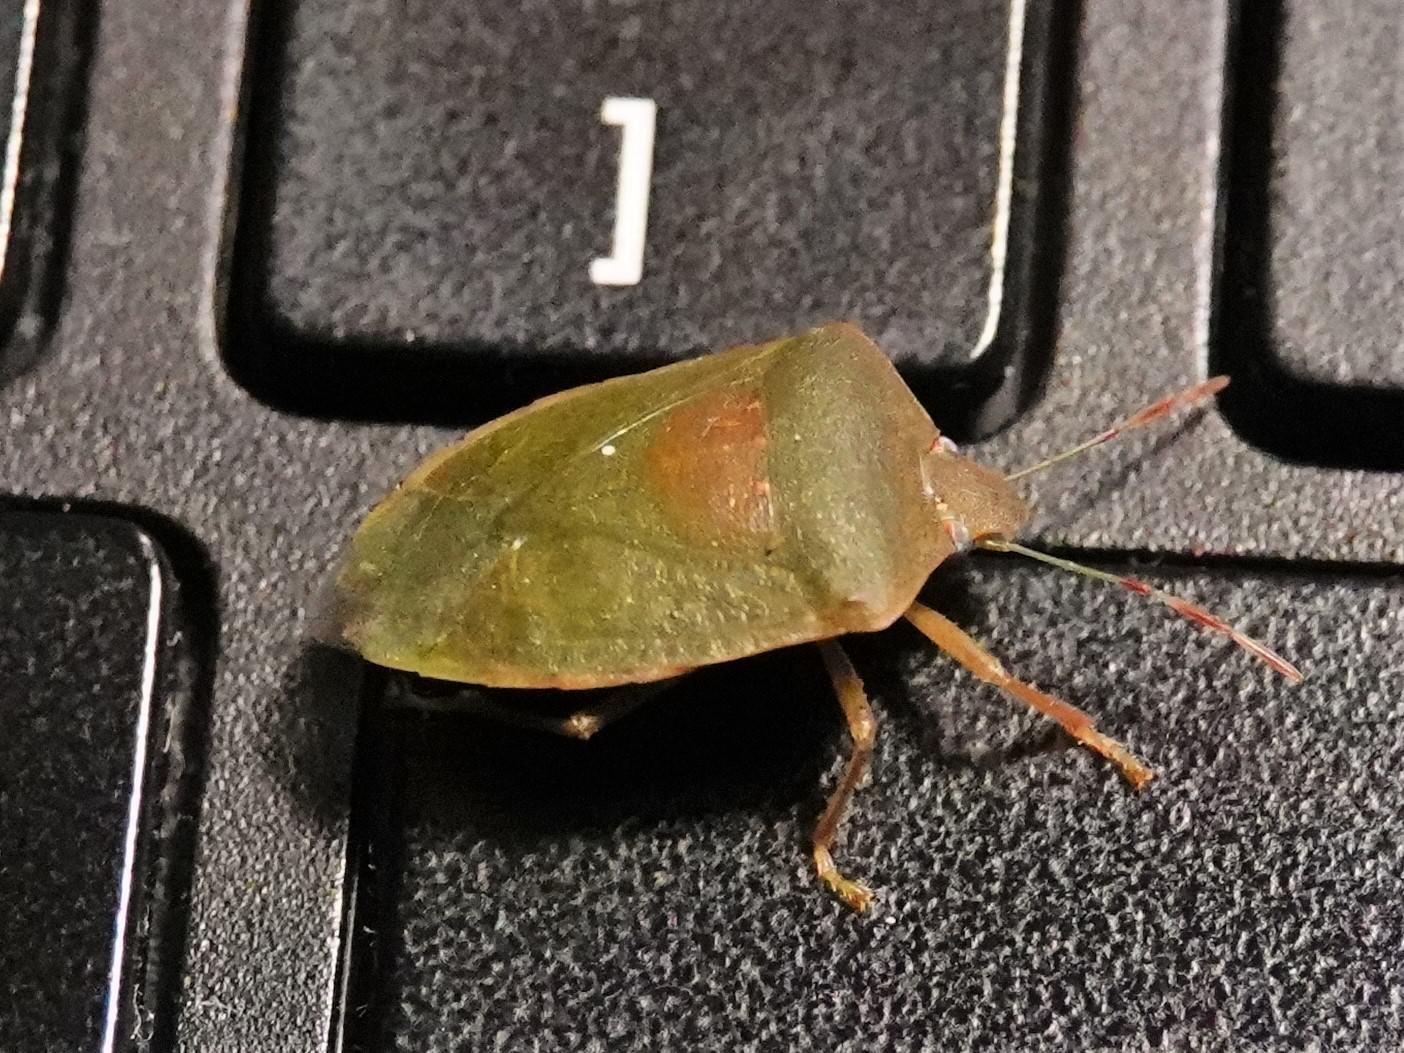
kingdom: Animalia
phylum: Arthropoda
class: Insecta
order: Hemiptera
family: Pentatomidae
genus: Nezara
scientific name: Nezara viridula
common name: Southern green stink bug
